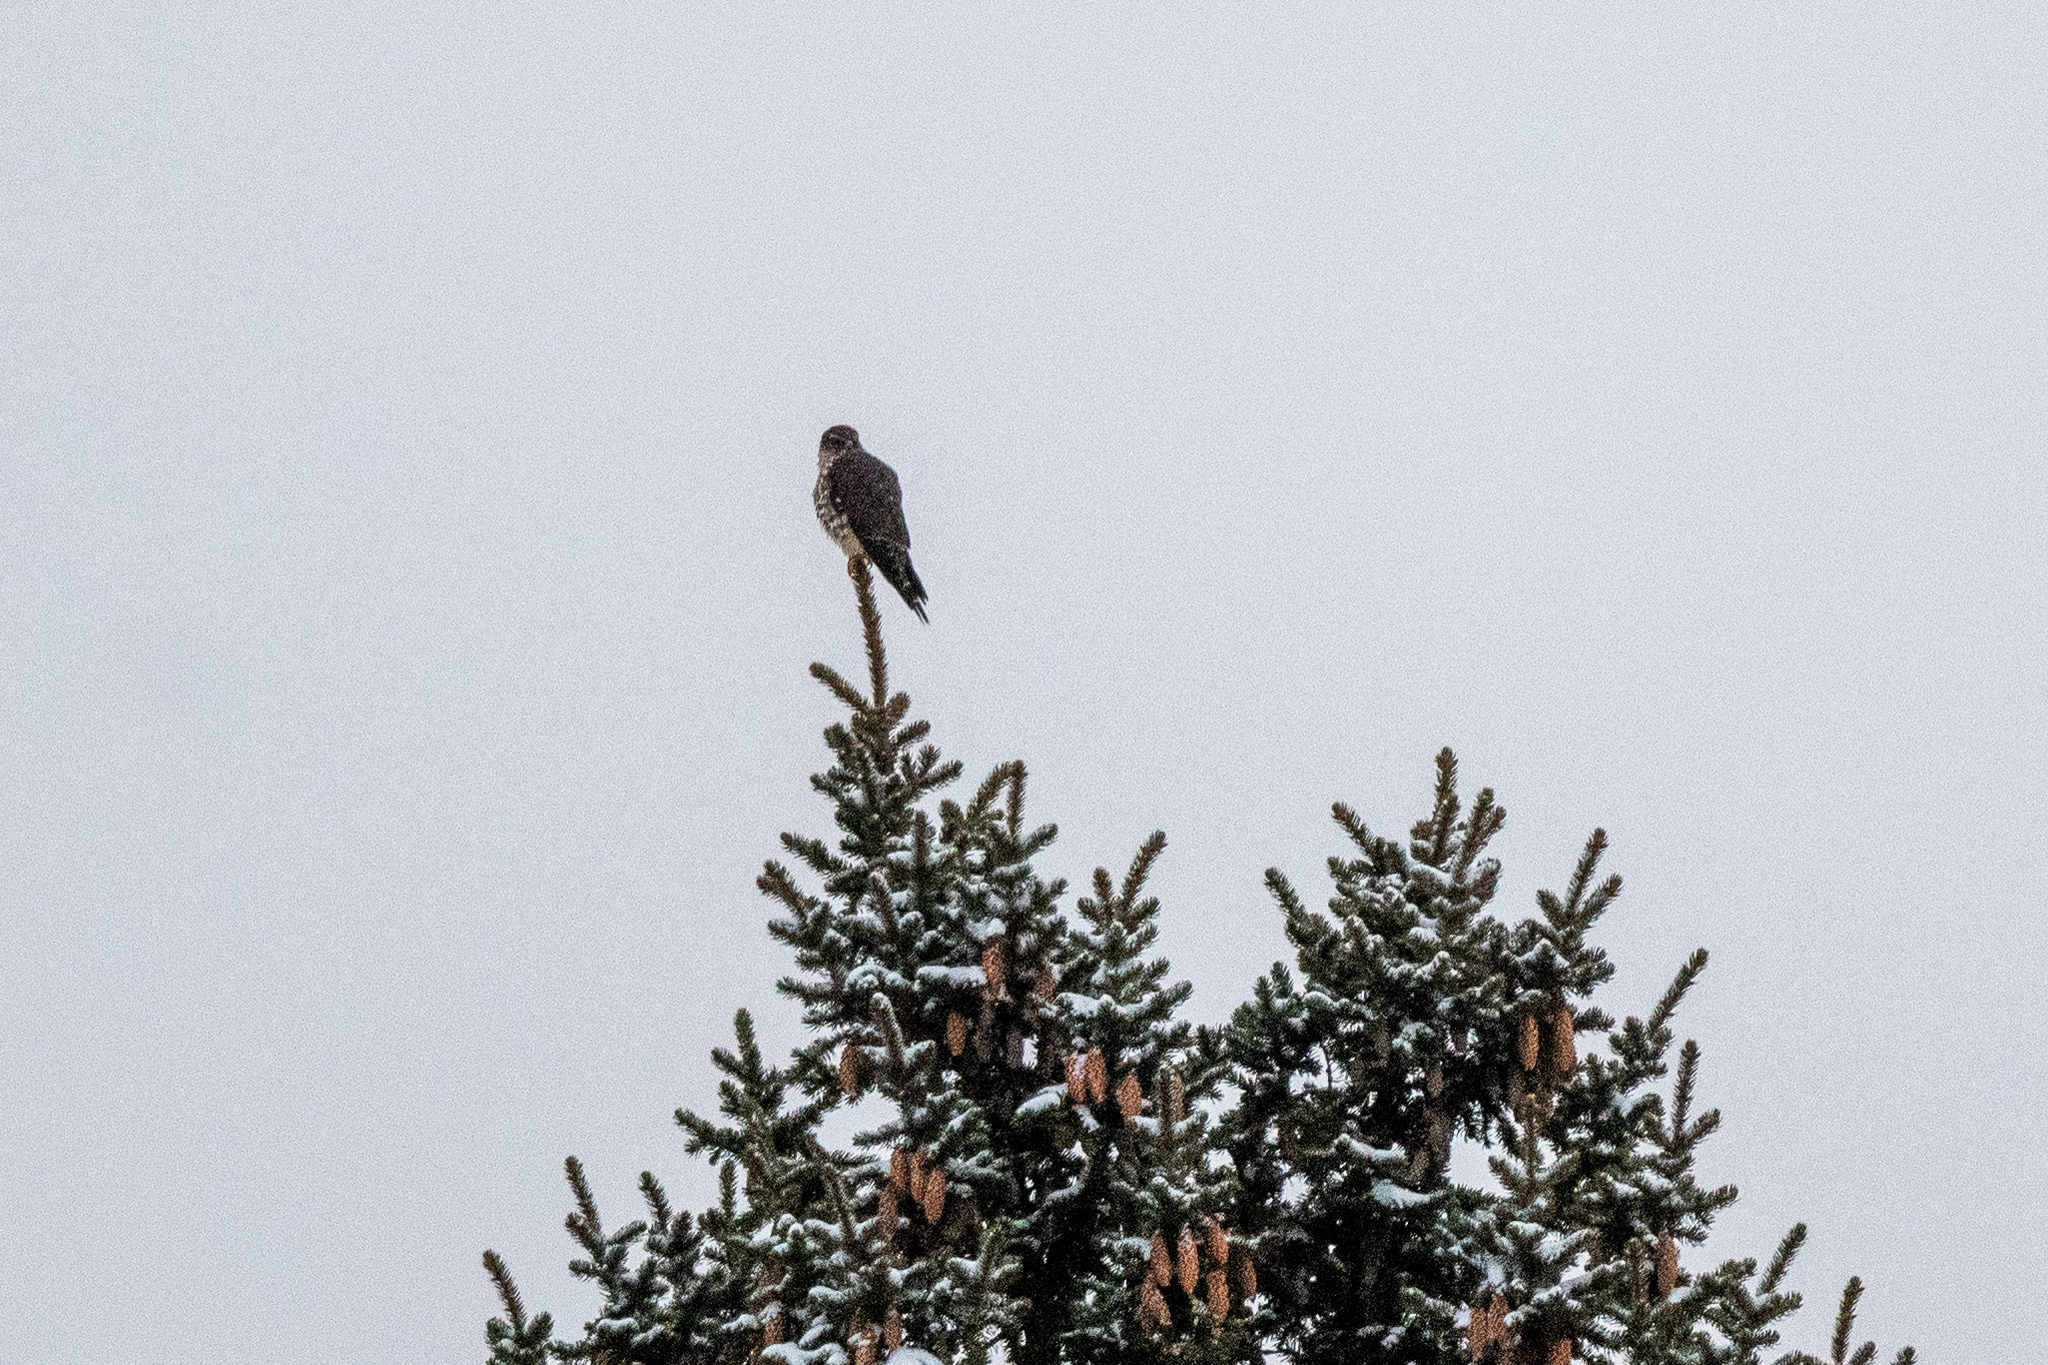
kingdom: Animalia
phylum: Chordata
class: Aves
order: Falconiformes
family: Falconidae
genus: Falco
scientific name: Falco columbarius
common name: Merlin
